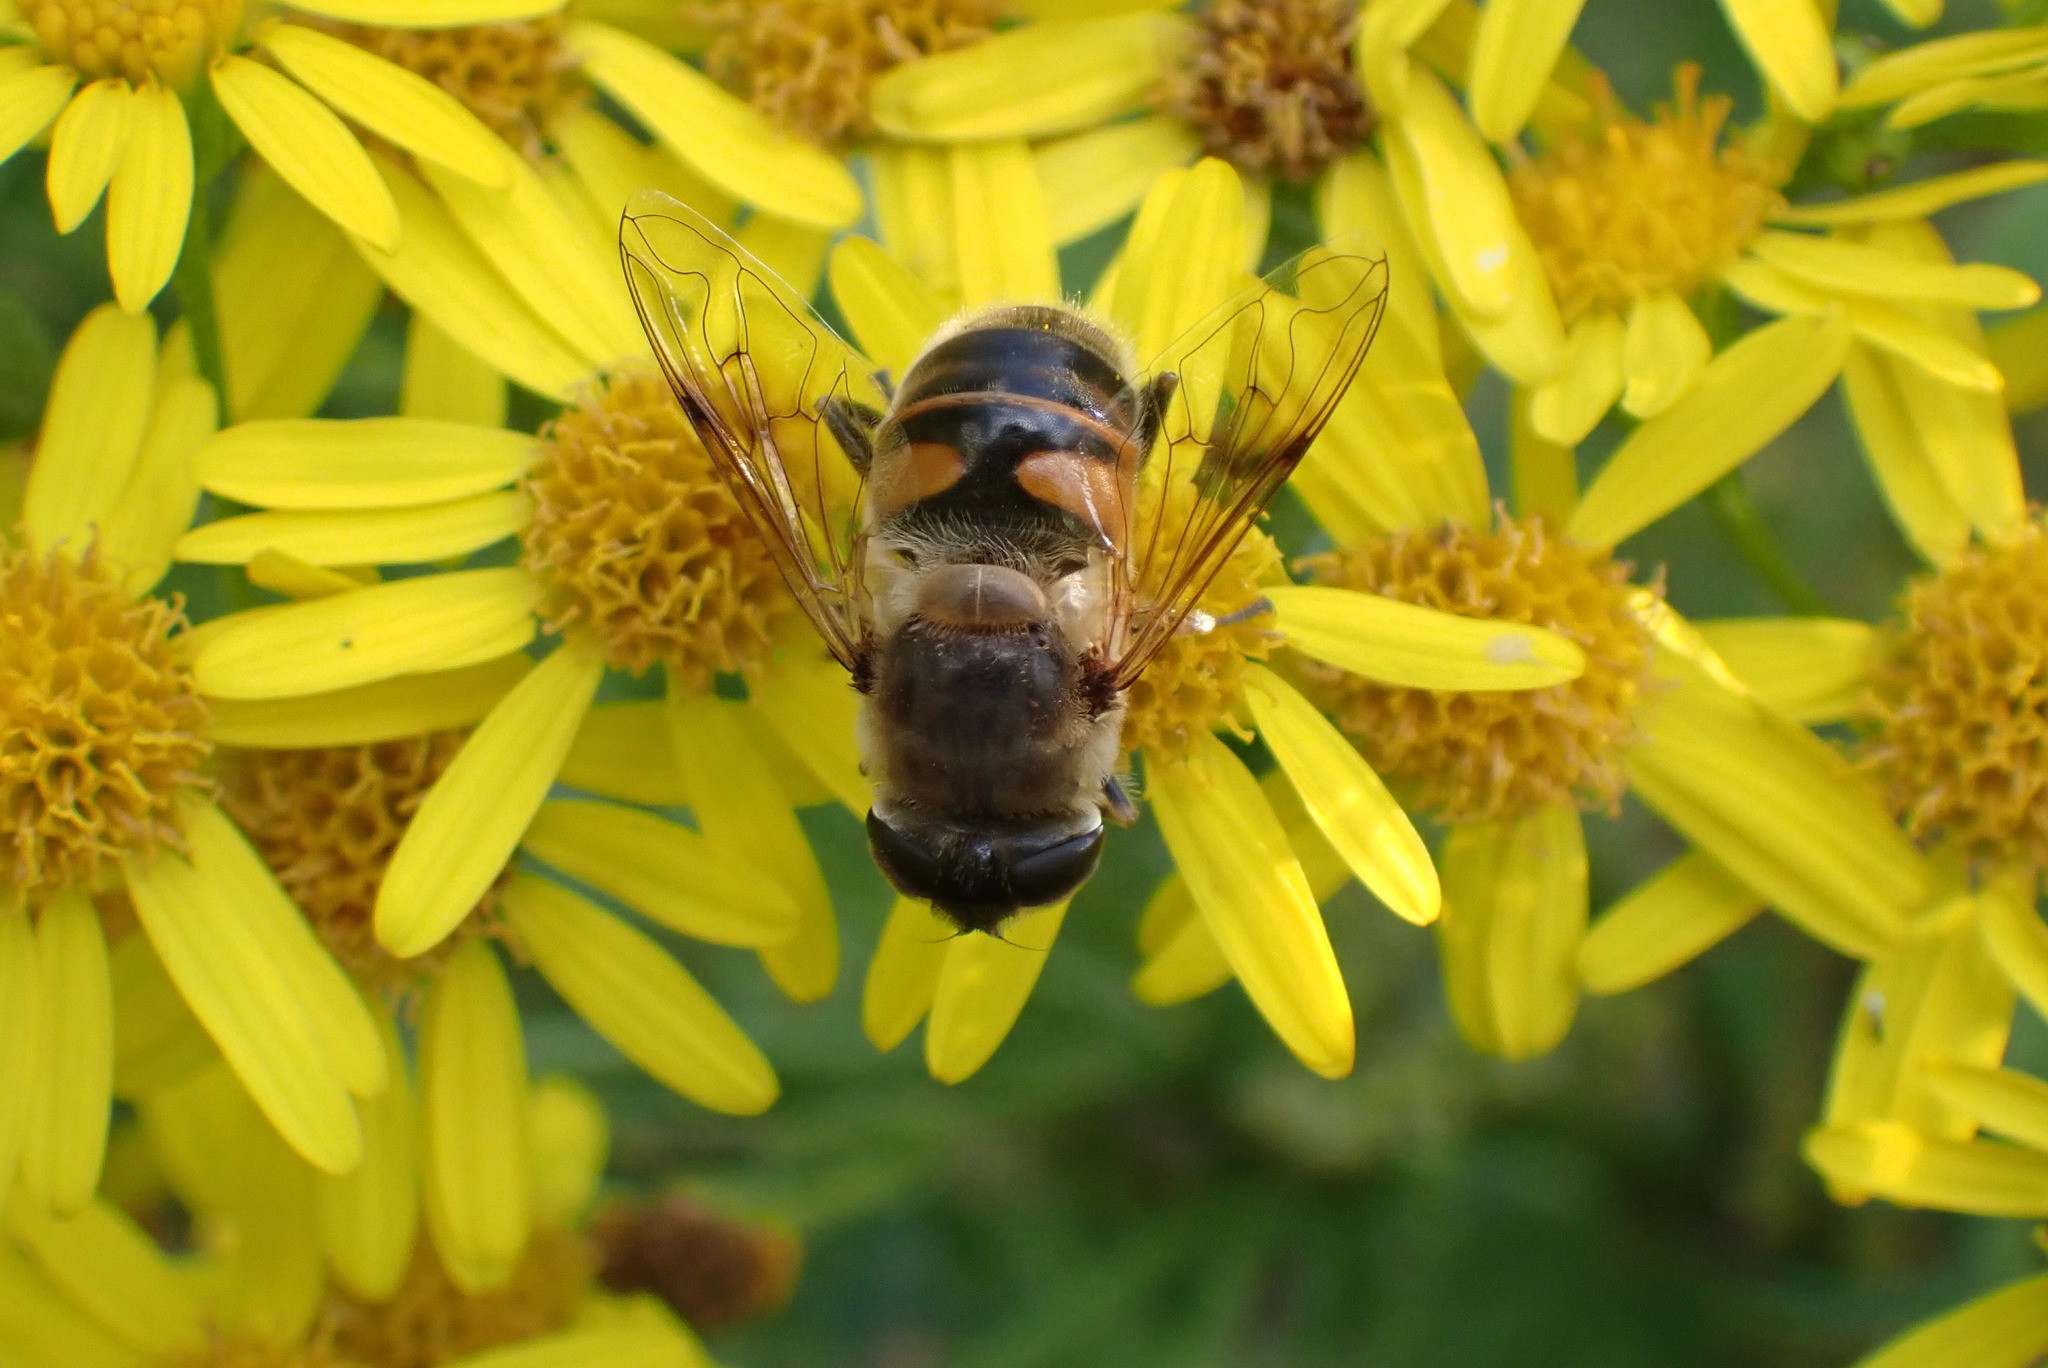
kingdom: Animalia
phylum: Arthropoda
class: Insecta
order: Diptera
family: Syrphidae
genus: Eristalis
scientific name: Eristalis tenax
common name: Drone fly
